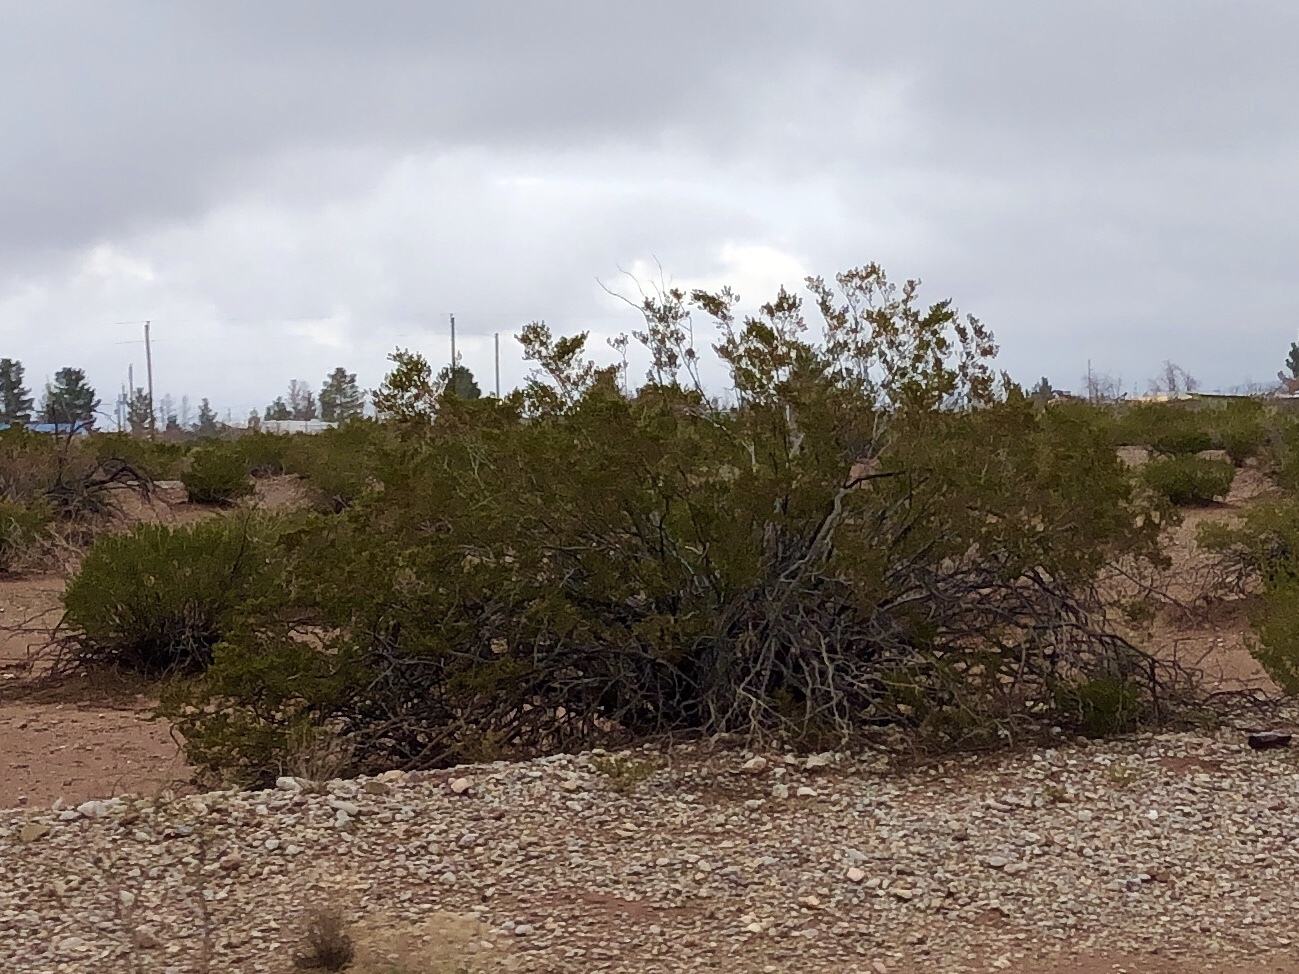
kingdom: Plantae
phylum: Tracheophyta
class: Magnoliopsida
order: Zygophyllales
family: Zygophyllaceae
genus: Larrea
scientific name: Larrea tridentata
